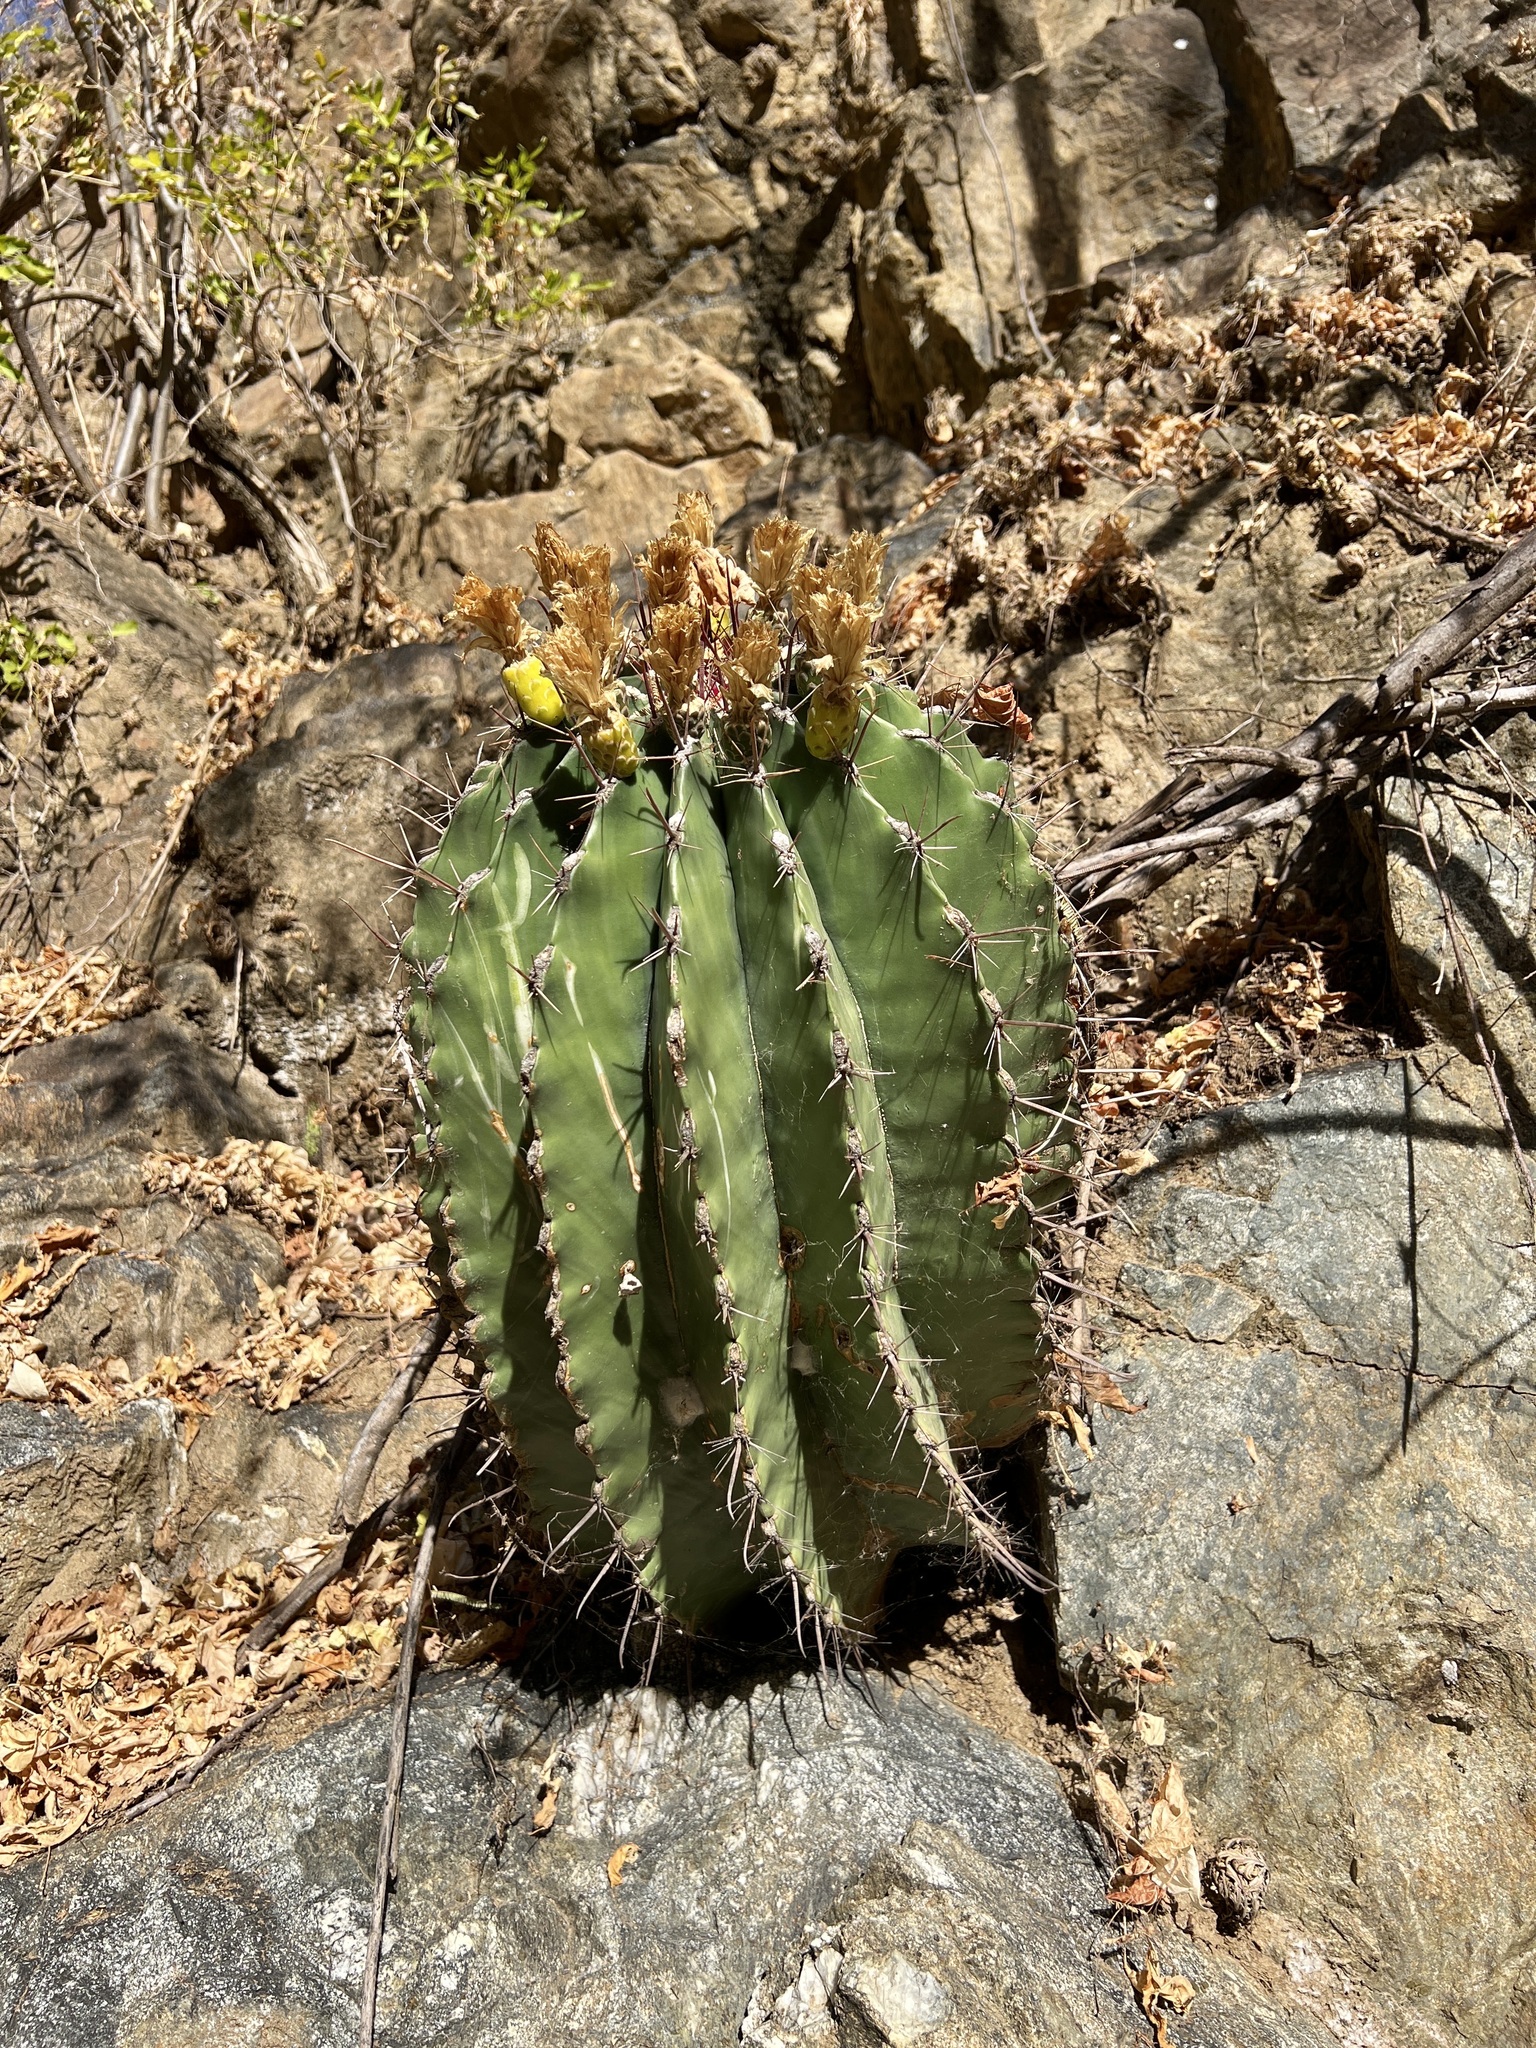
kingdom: Plantae
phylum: Tracheophyta
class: Magnoliopsida
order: Caryophyllales
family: Cactaceae
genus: Ferocactus
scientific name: Ferocactus townsendianus
